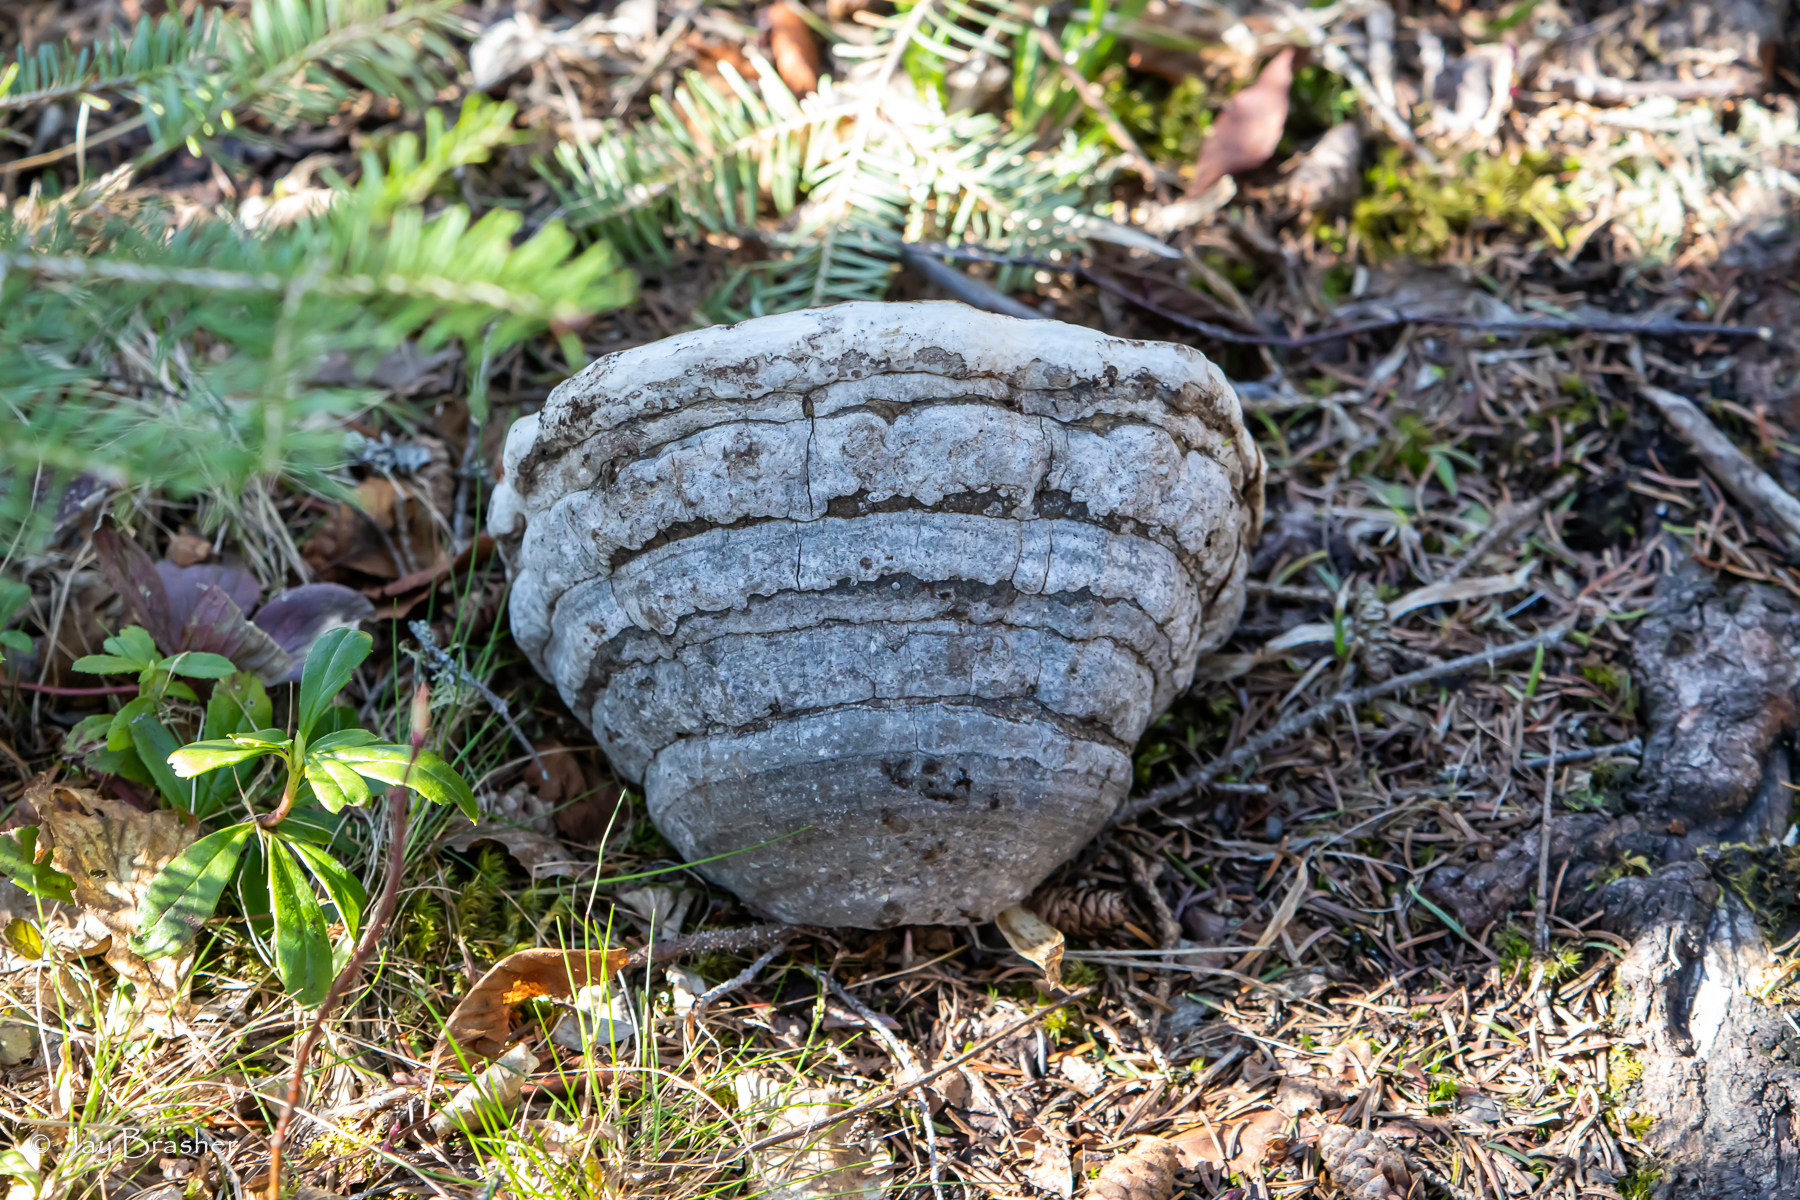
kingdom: Fungi
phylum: Basidiomycota
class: Agaricomycetes
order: Polyporales
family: Polyporaceae
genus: Fomes
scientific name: Fomes fomentarius
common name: Hoof fungus
